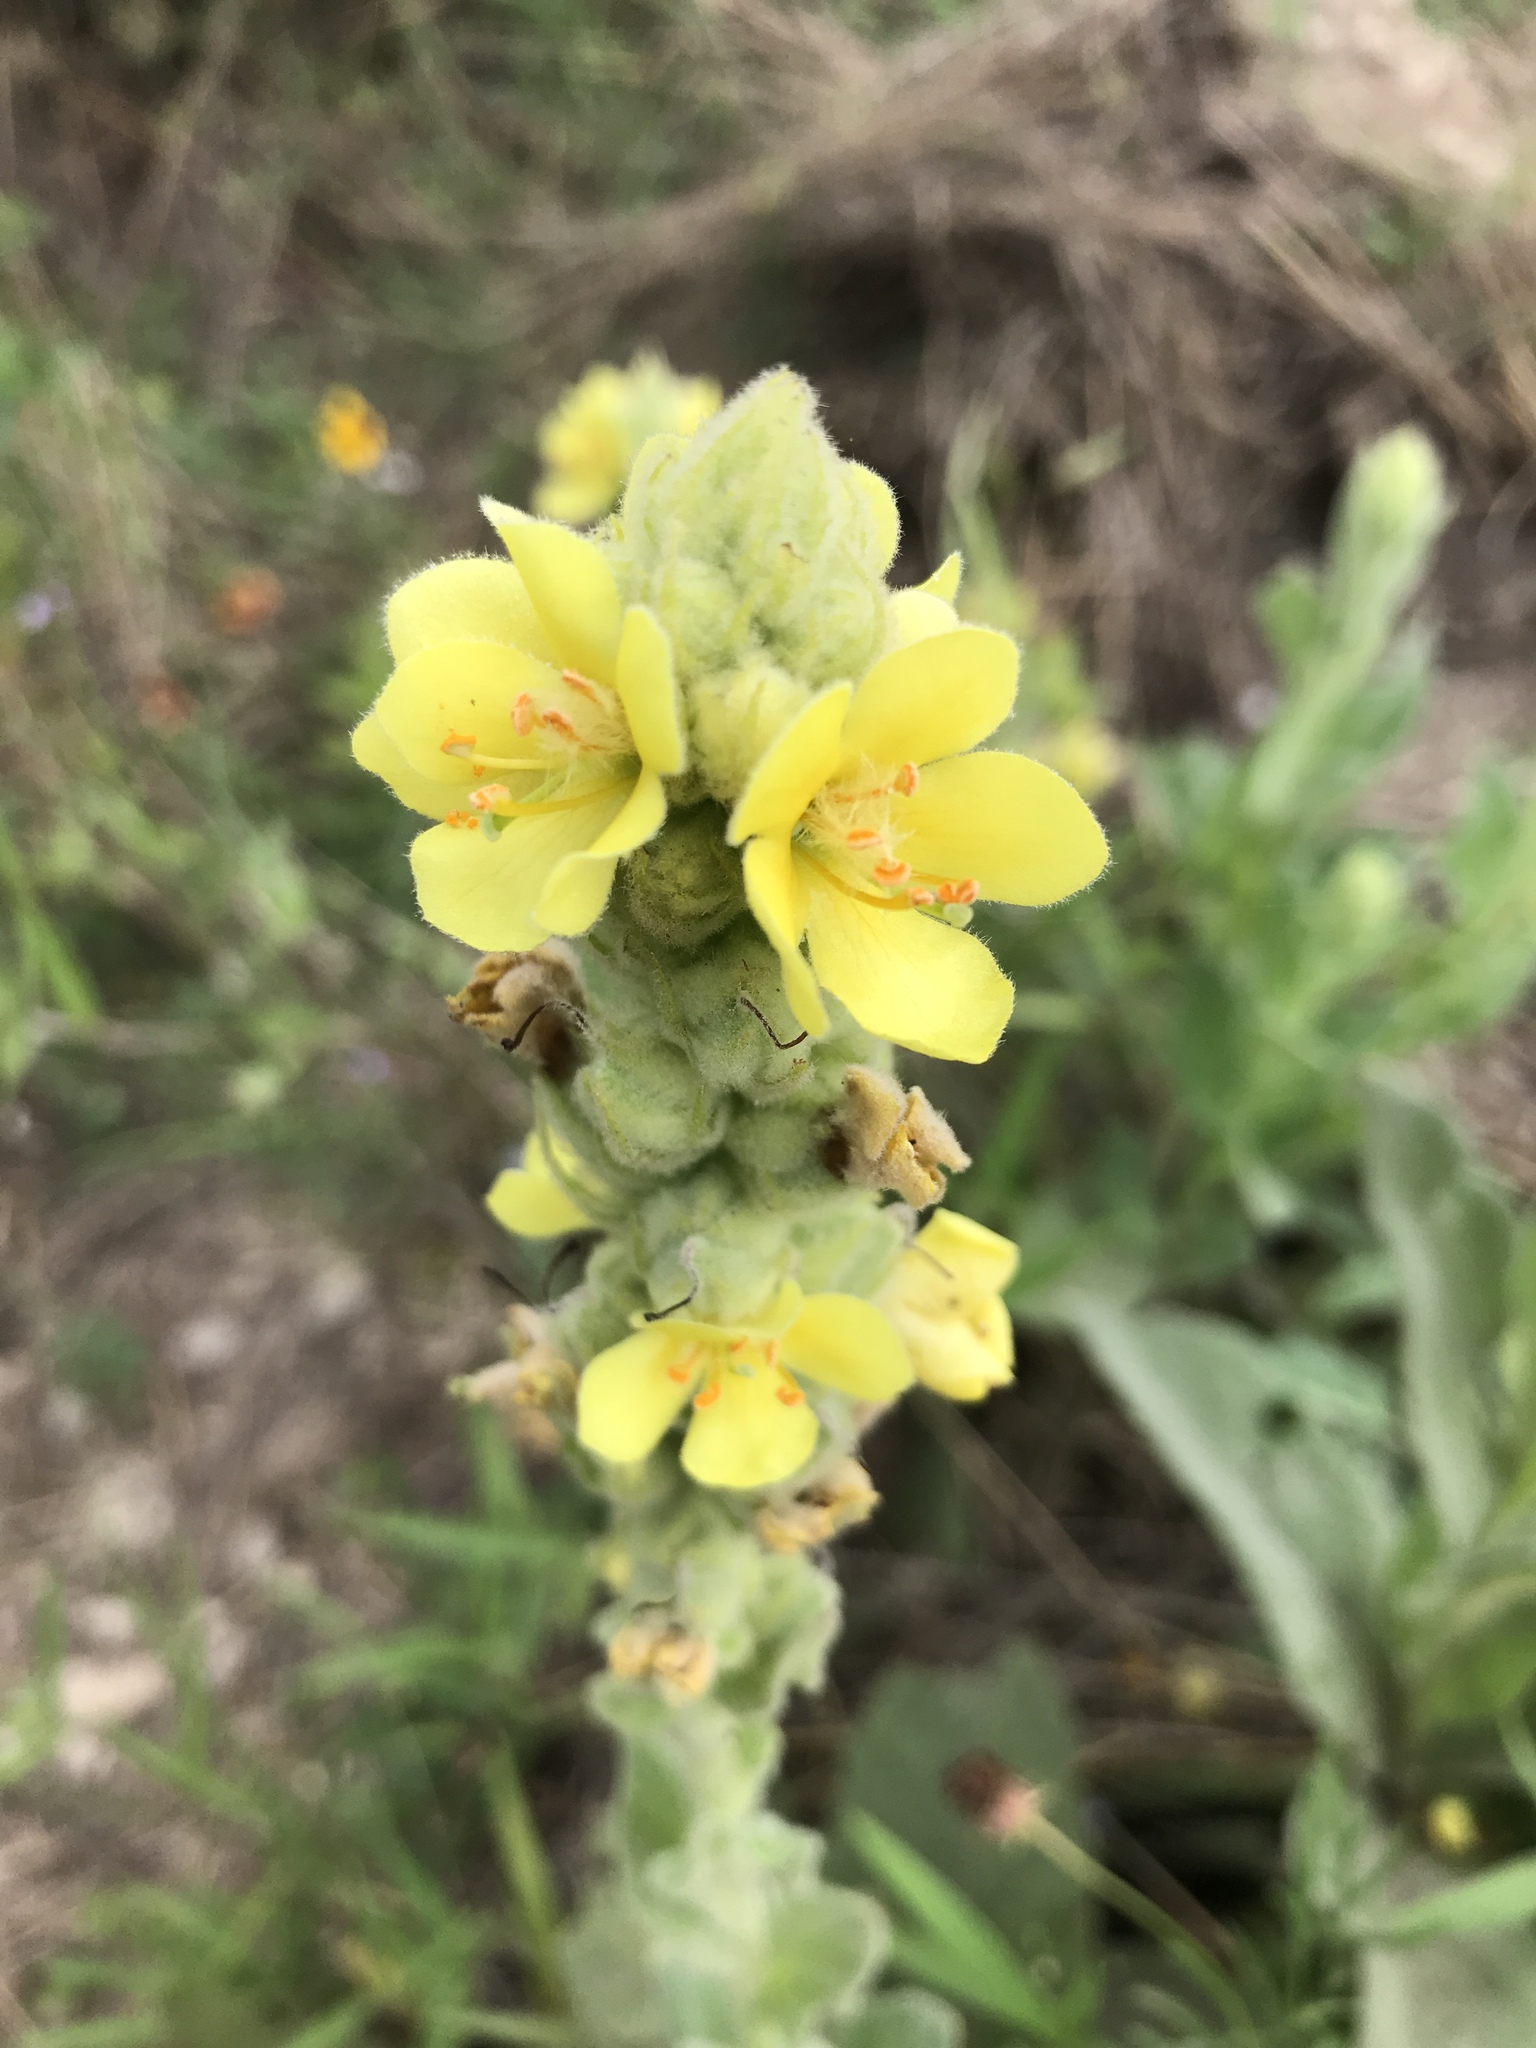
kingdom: Plantae
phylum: Tracheophyta
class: Magnoliopsida
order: Lamiales
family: Scrophulariaceae
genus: Verbascum
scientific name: Verbascum thapsus
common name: Common mullein
